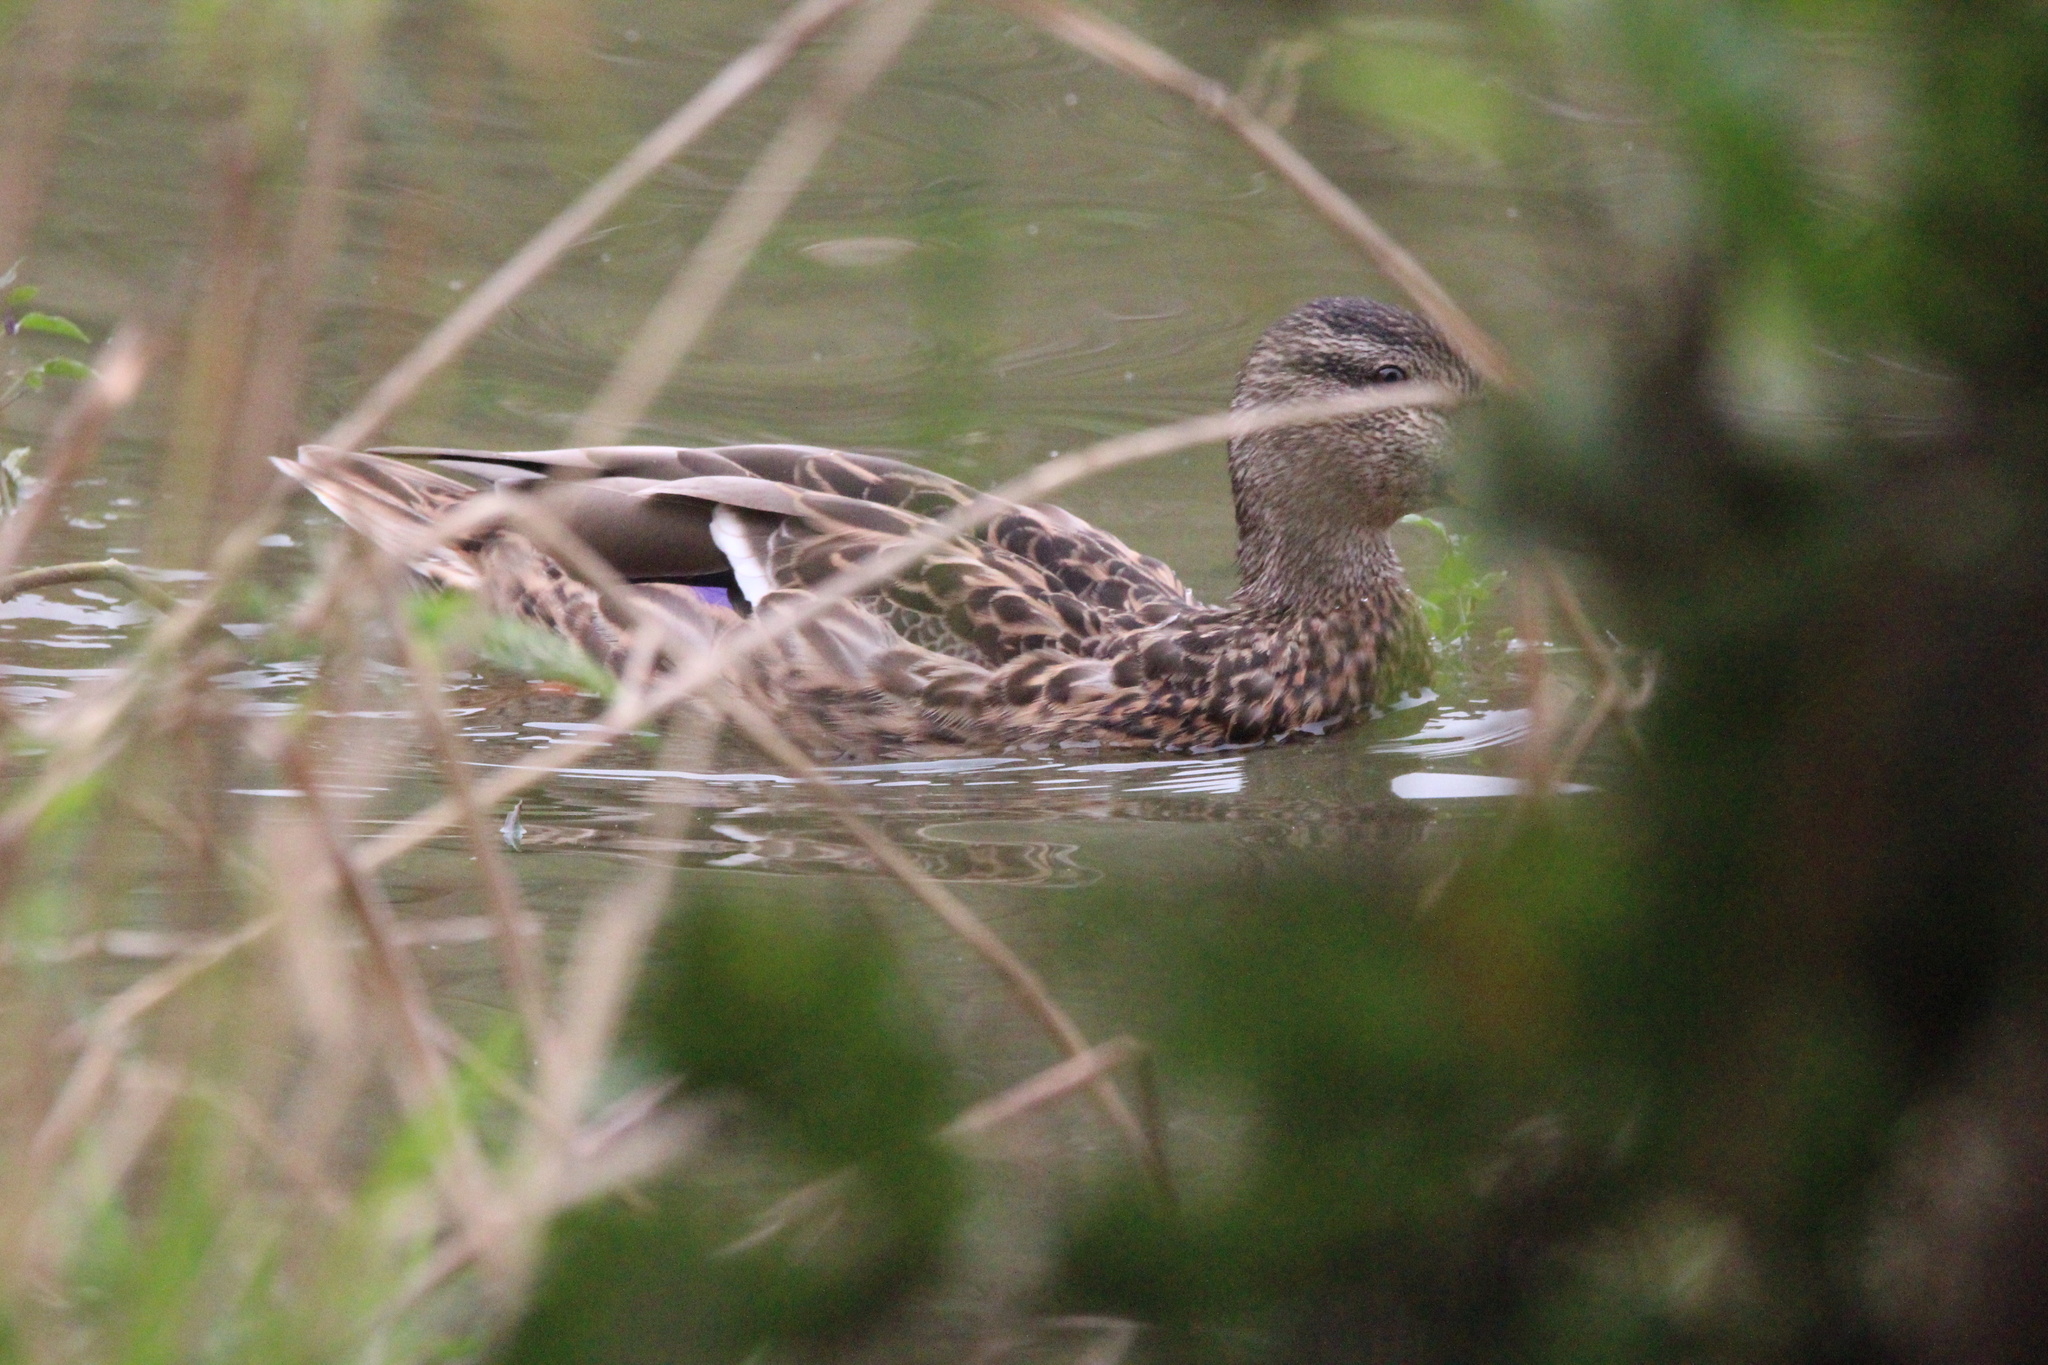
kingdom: Animalia
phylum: Chordata
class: Aves
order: Anseriformes
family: Anatidae
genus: Anas
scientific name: Anas platyrhynchos
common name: Mallard
